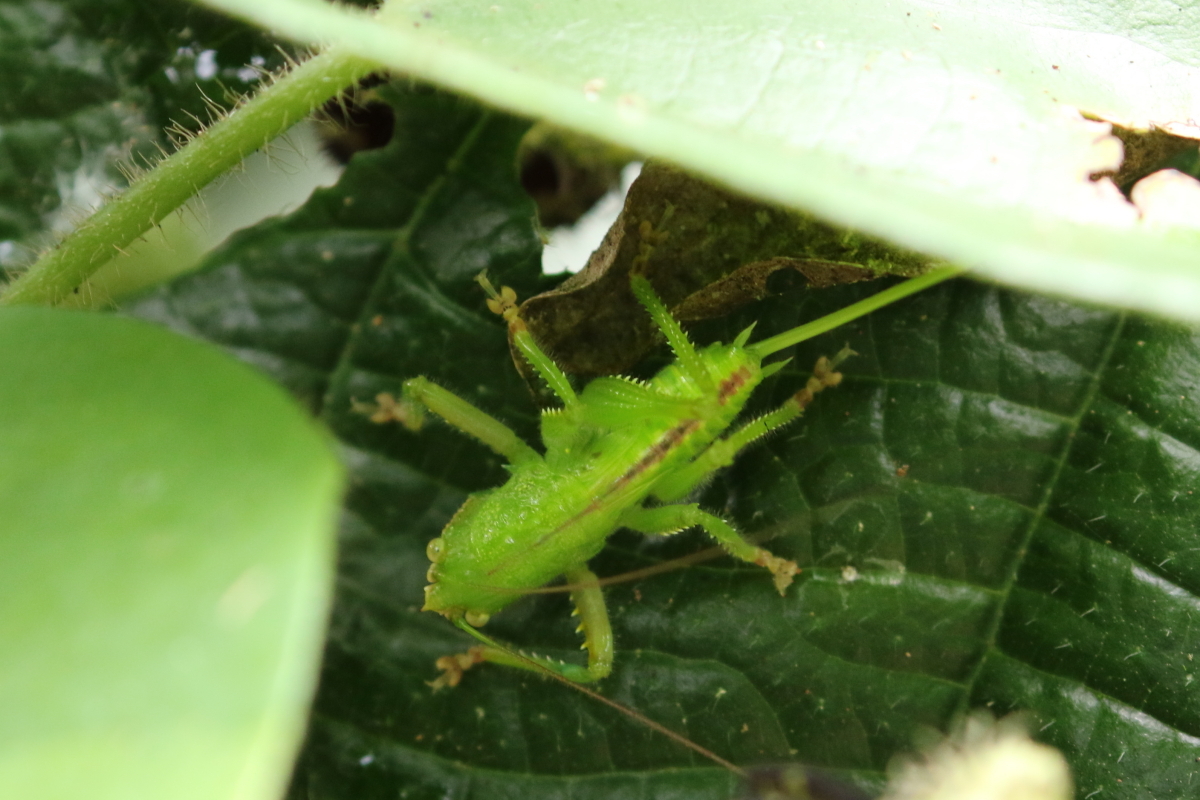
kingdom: Animalia
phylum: Arthropoda
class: Insecta
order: Orthoptera
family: Tettigoniidae
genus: Copiphora
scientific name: Copiphora brevirostris
